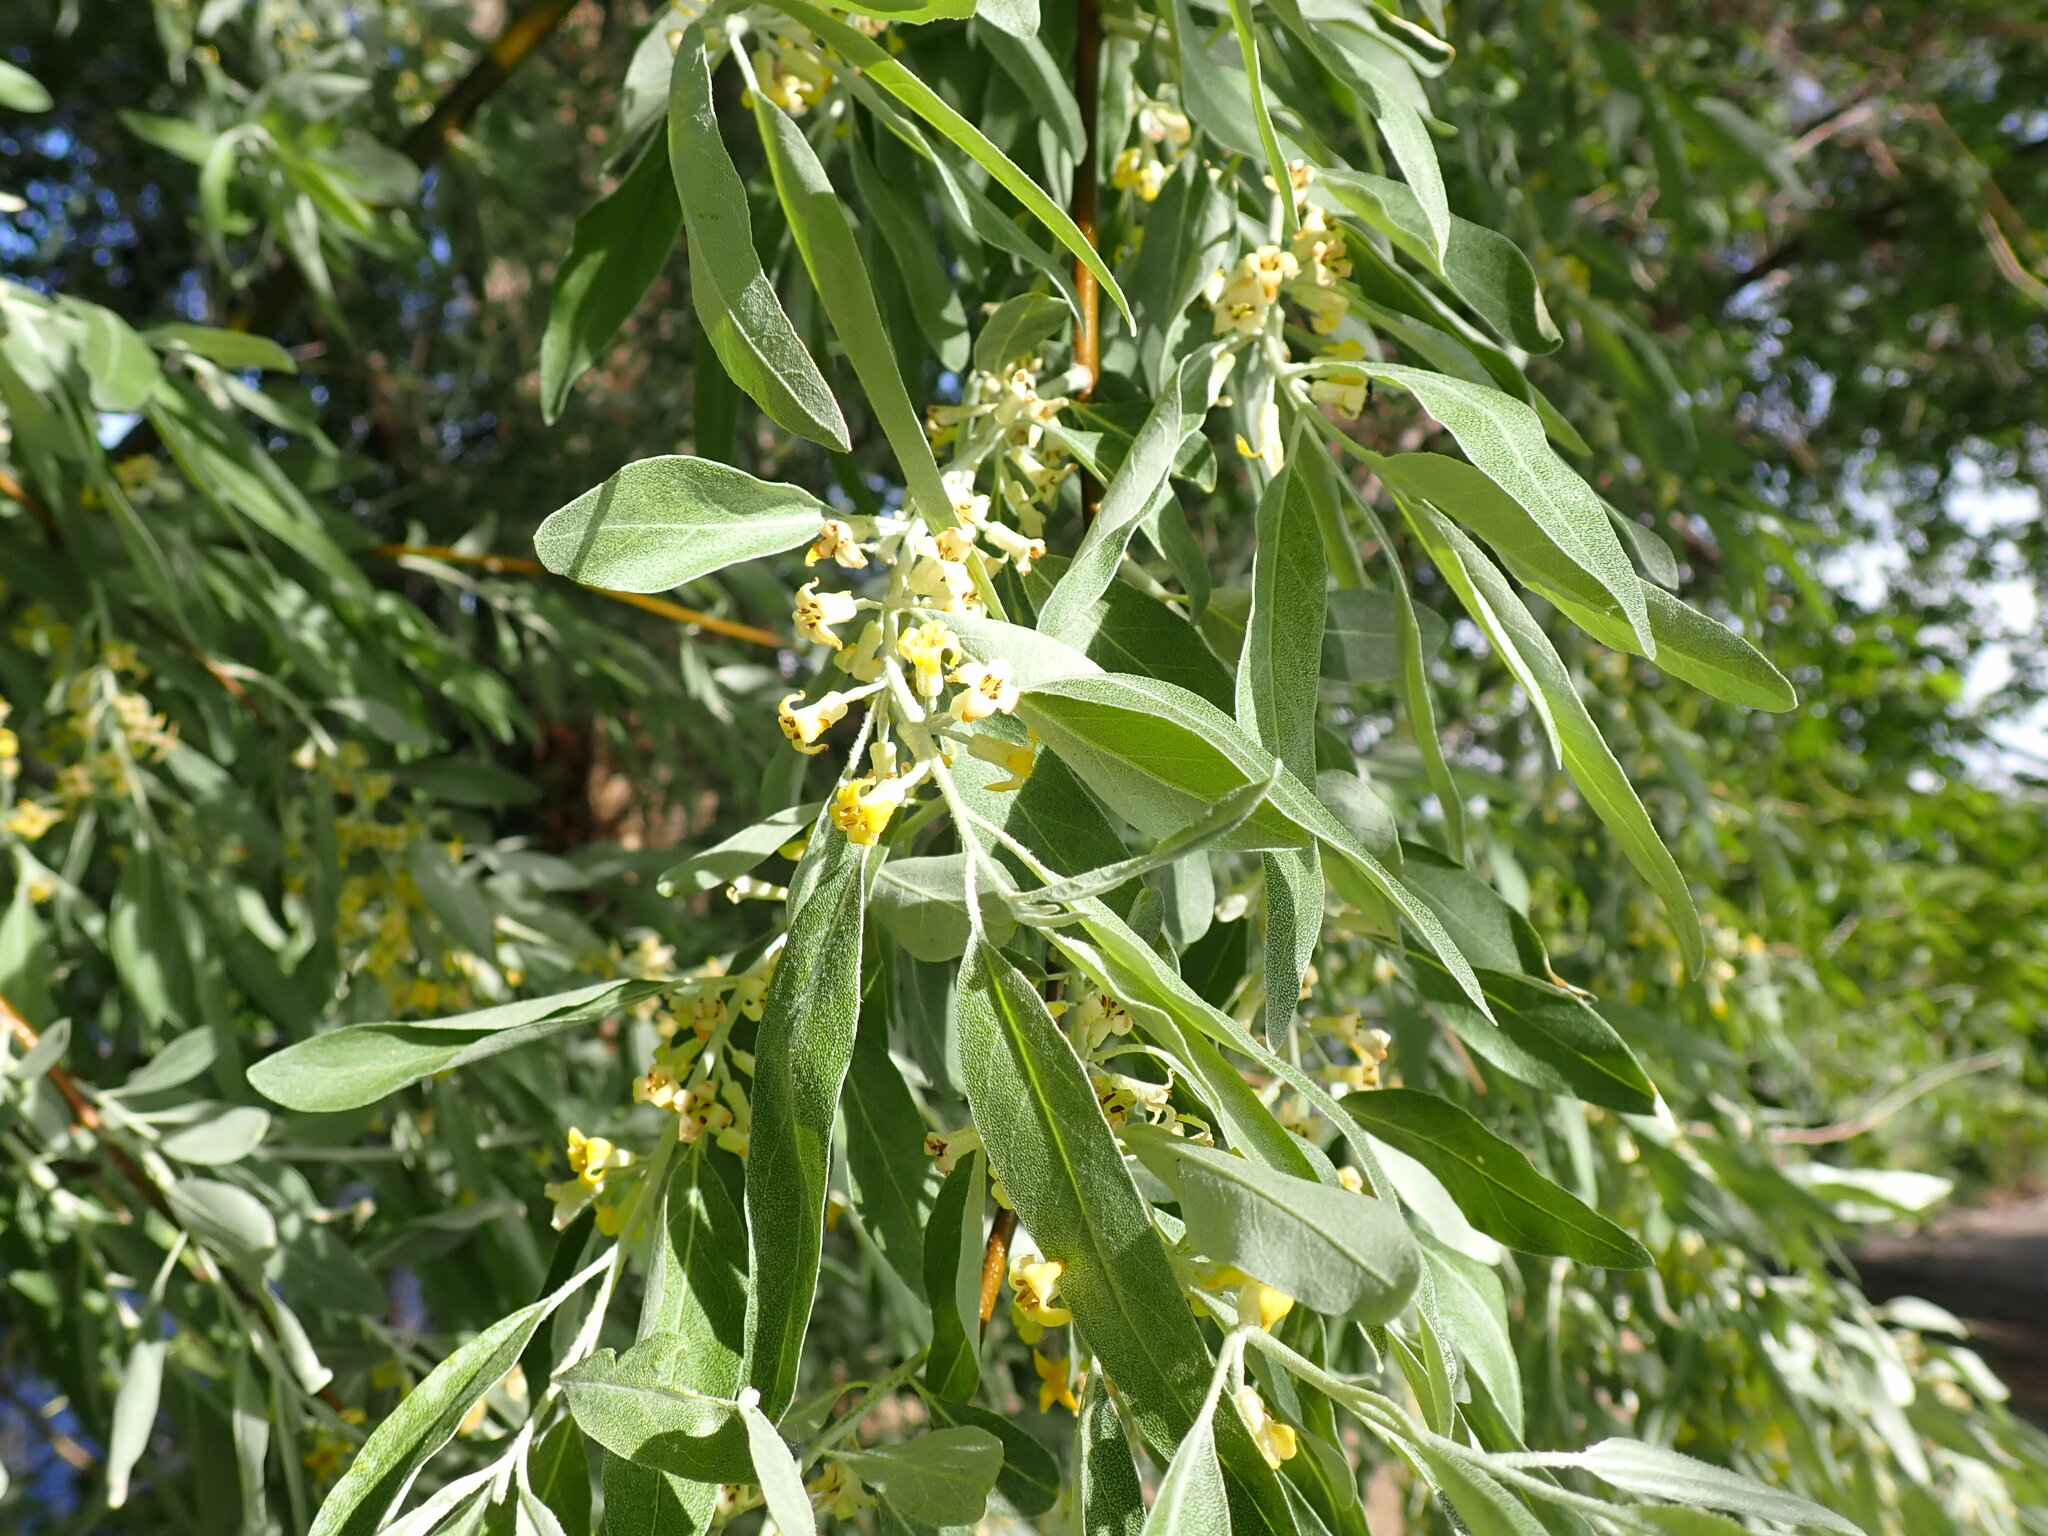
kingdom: Plantae
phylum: Tracheophyta
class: Magnoliopsida
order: Rosales
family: Elaeagnaceae
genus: Elaeagnus
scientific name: Elaeagnus angustifolia
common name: Russian olive
